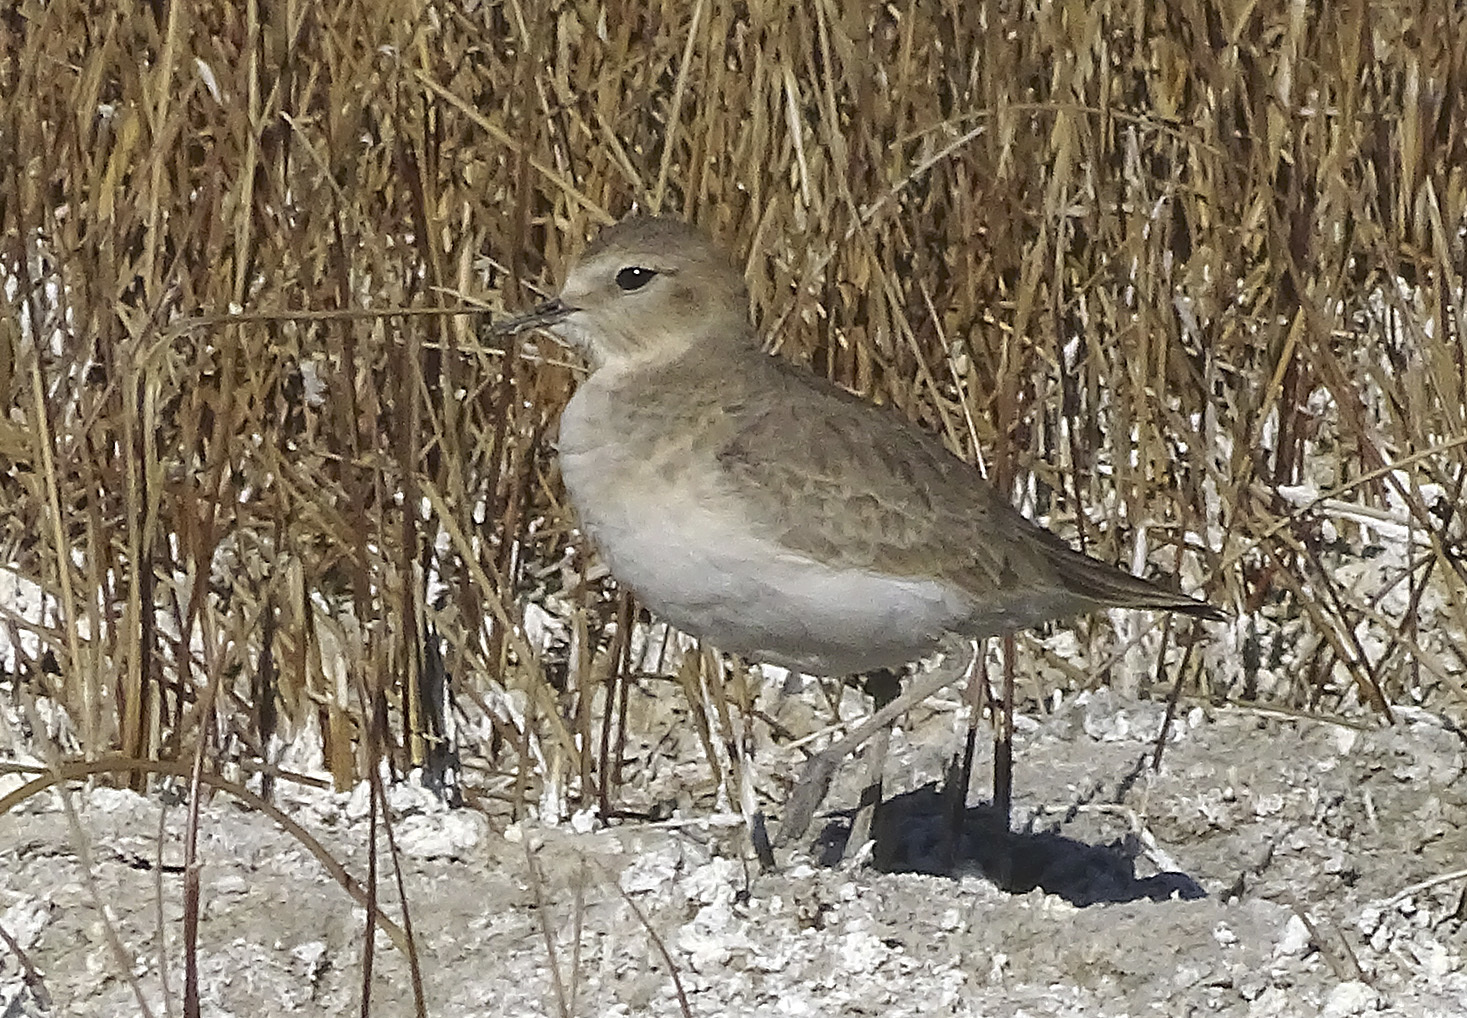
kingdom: Animalia
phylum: Chordata
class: Aves
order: Charadriiformes
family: Charadriidae
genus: Anarhynchus
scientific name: Anarhynchus
